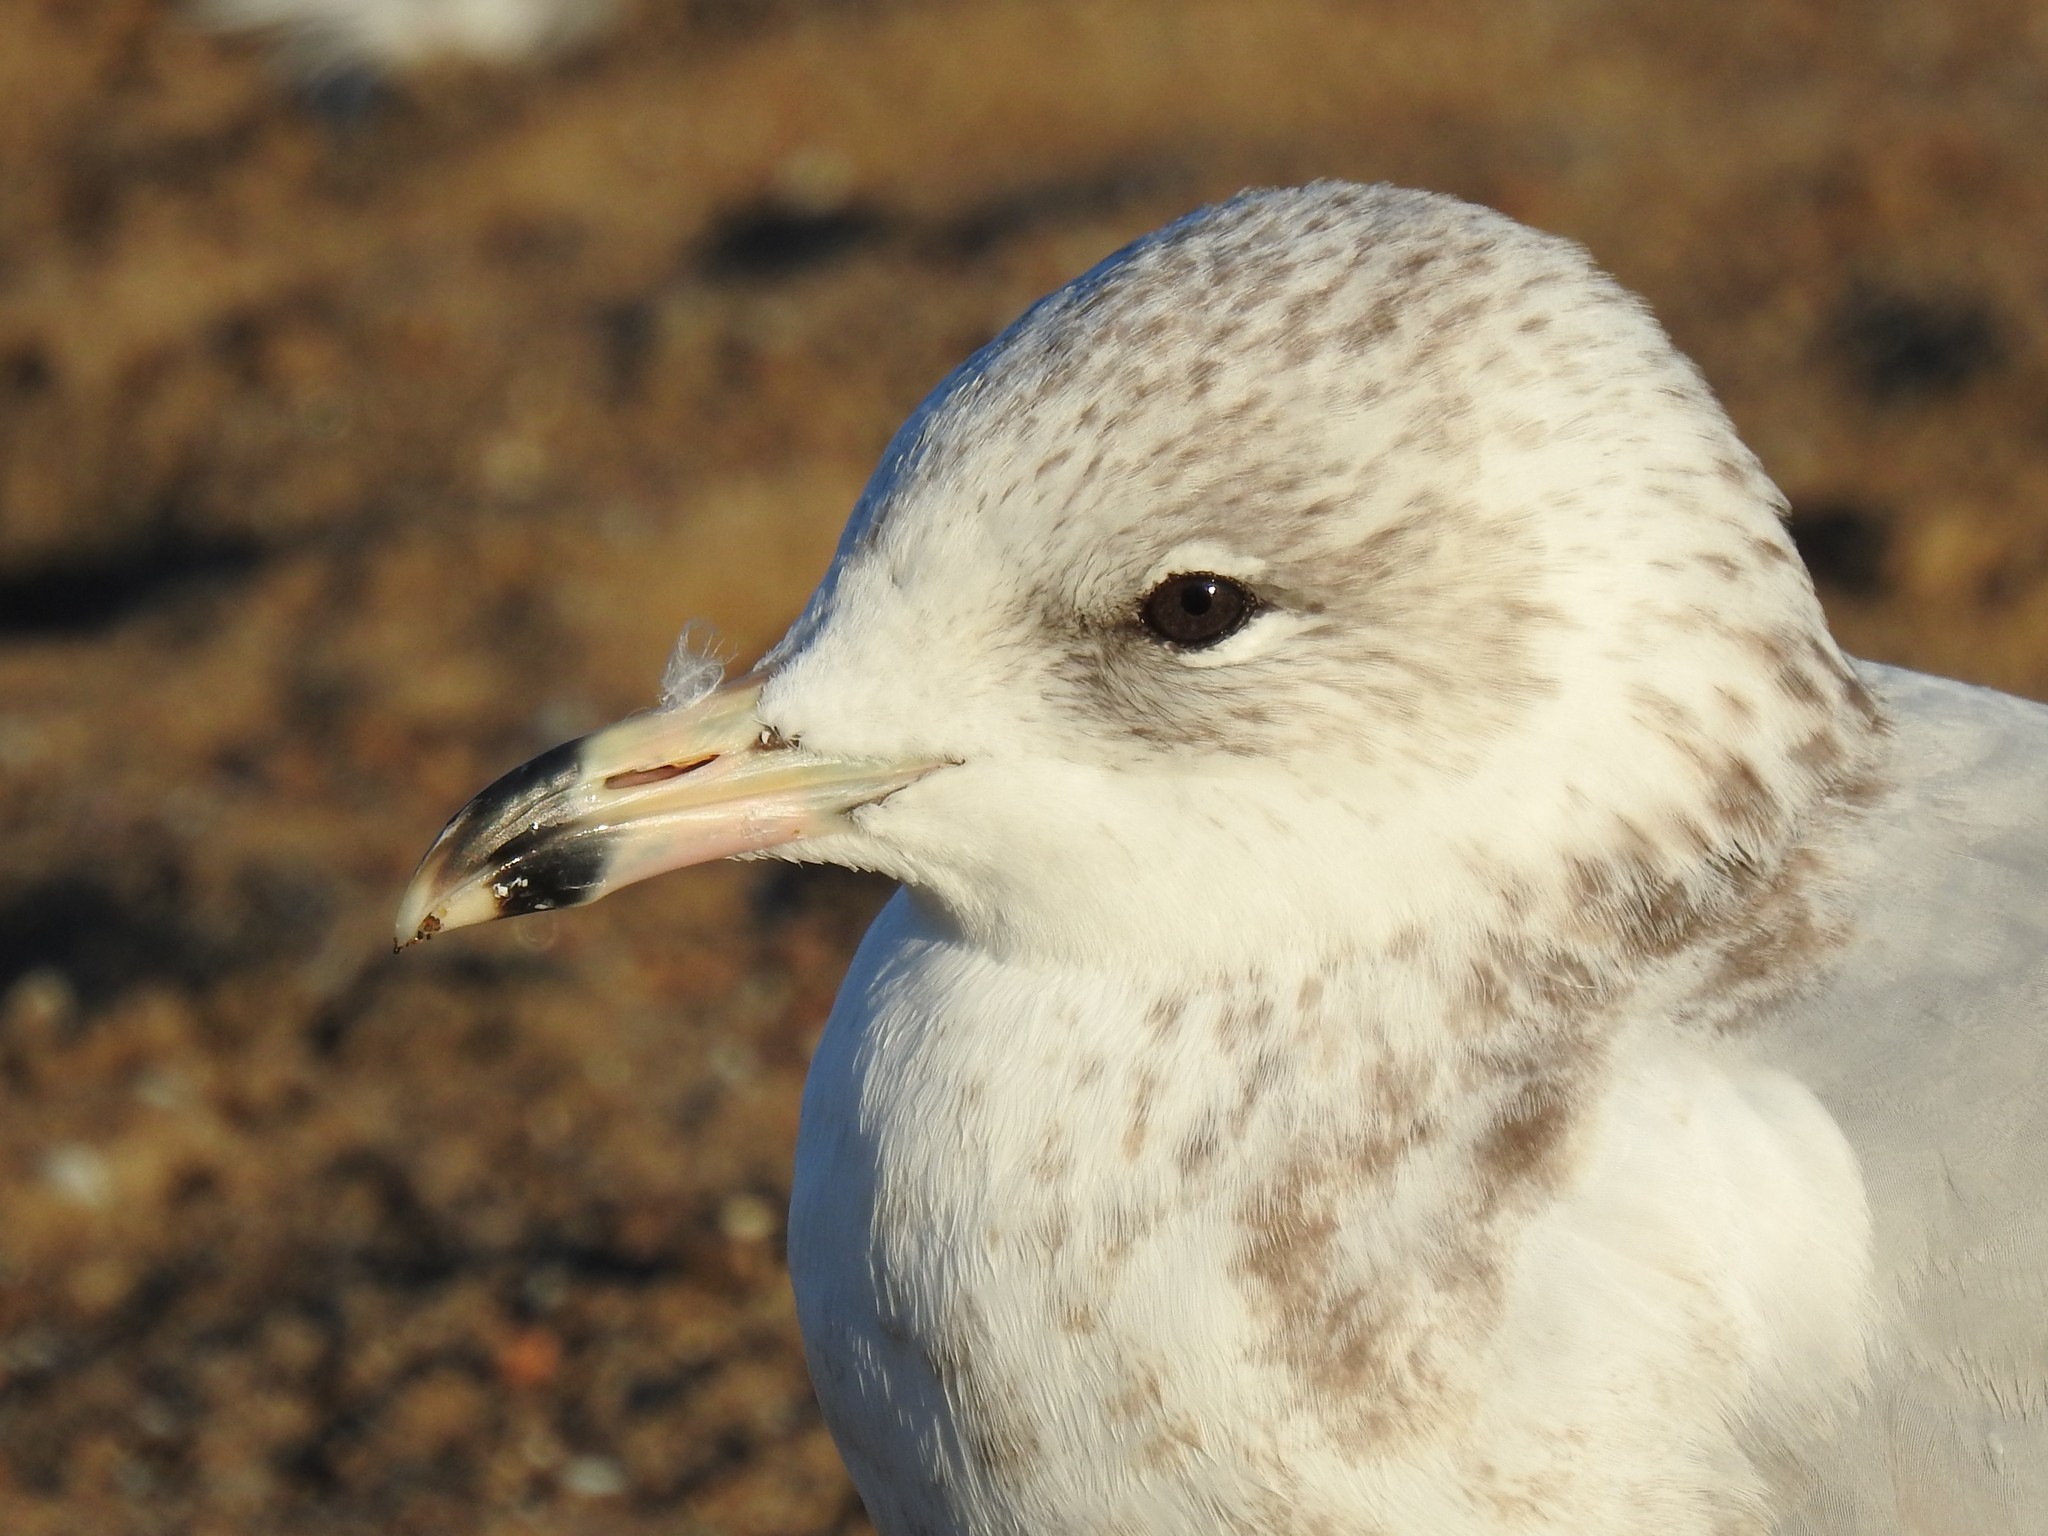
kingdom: Animalia
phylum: Chordata
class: Aves
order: Charadriiformes
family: Laridae
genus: Larus
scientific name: Larus delawarensis
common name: Ring-billed gull
